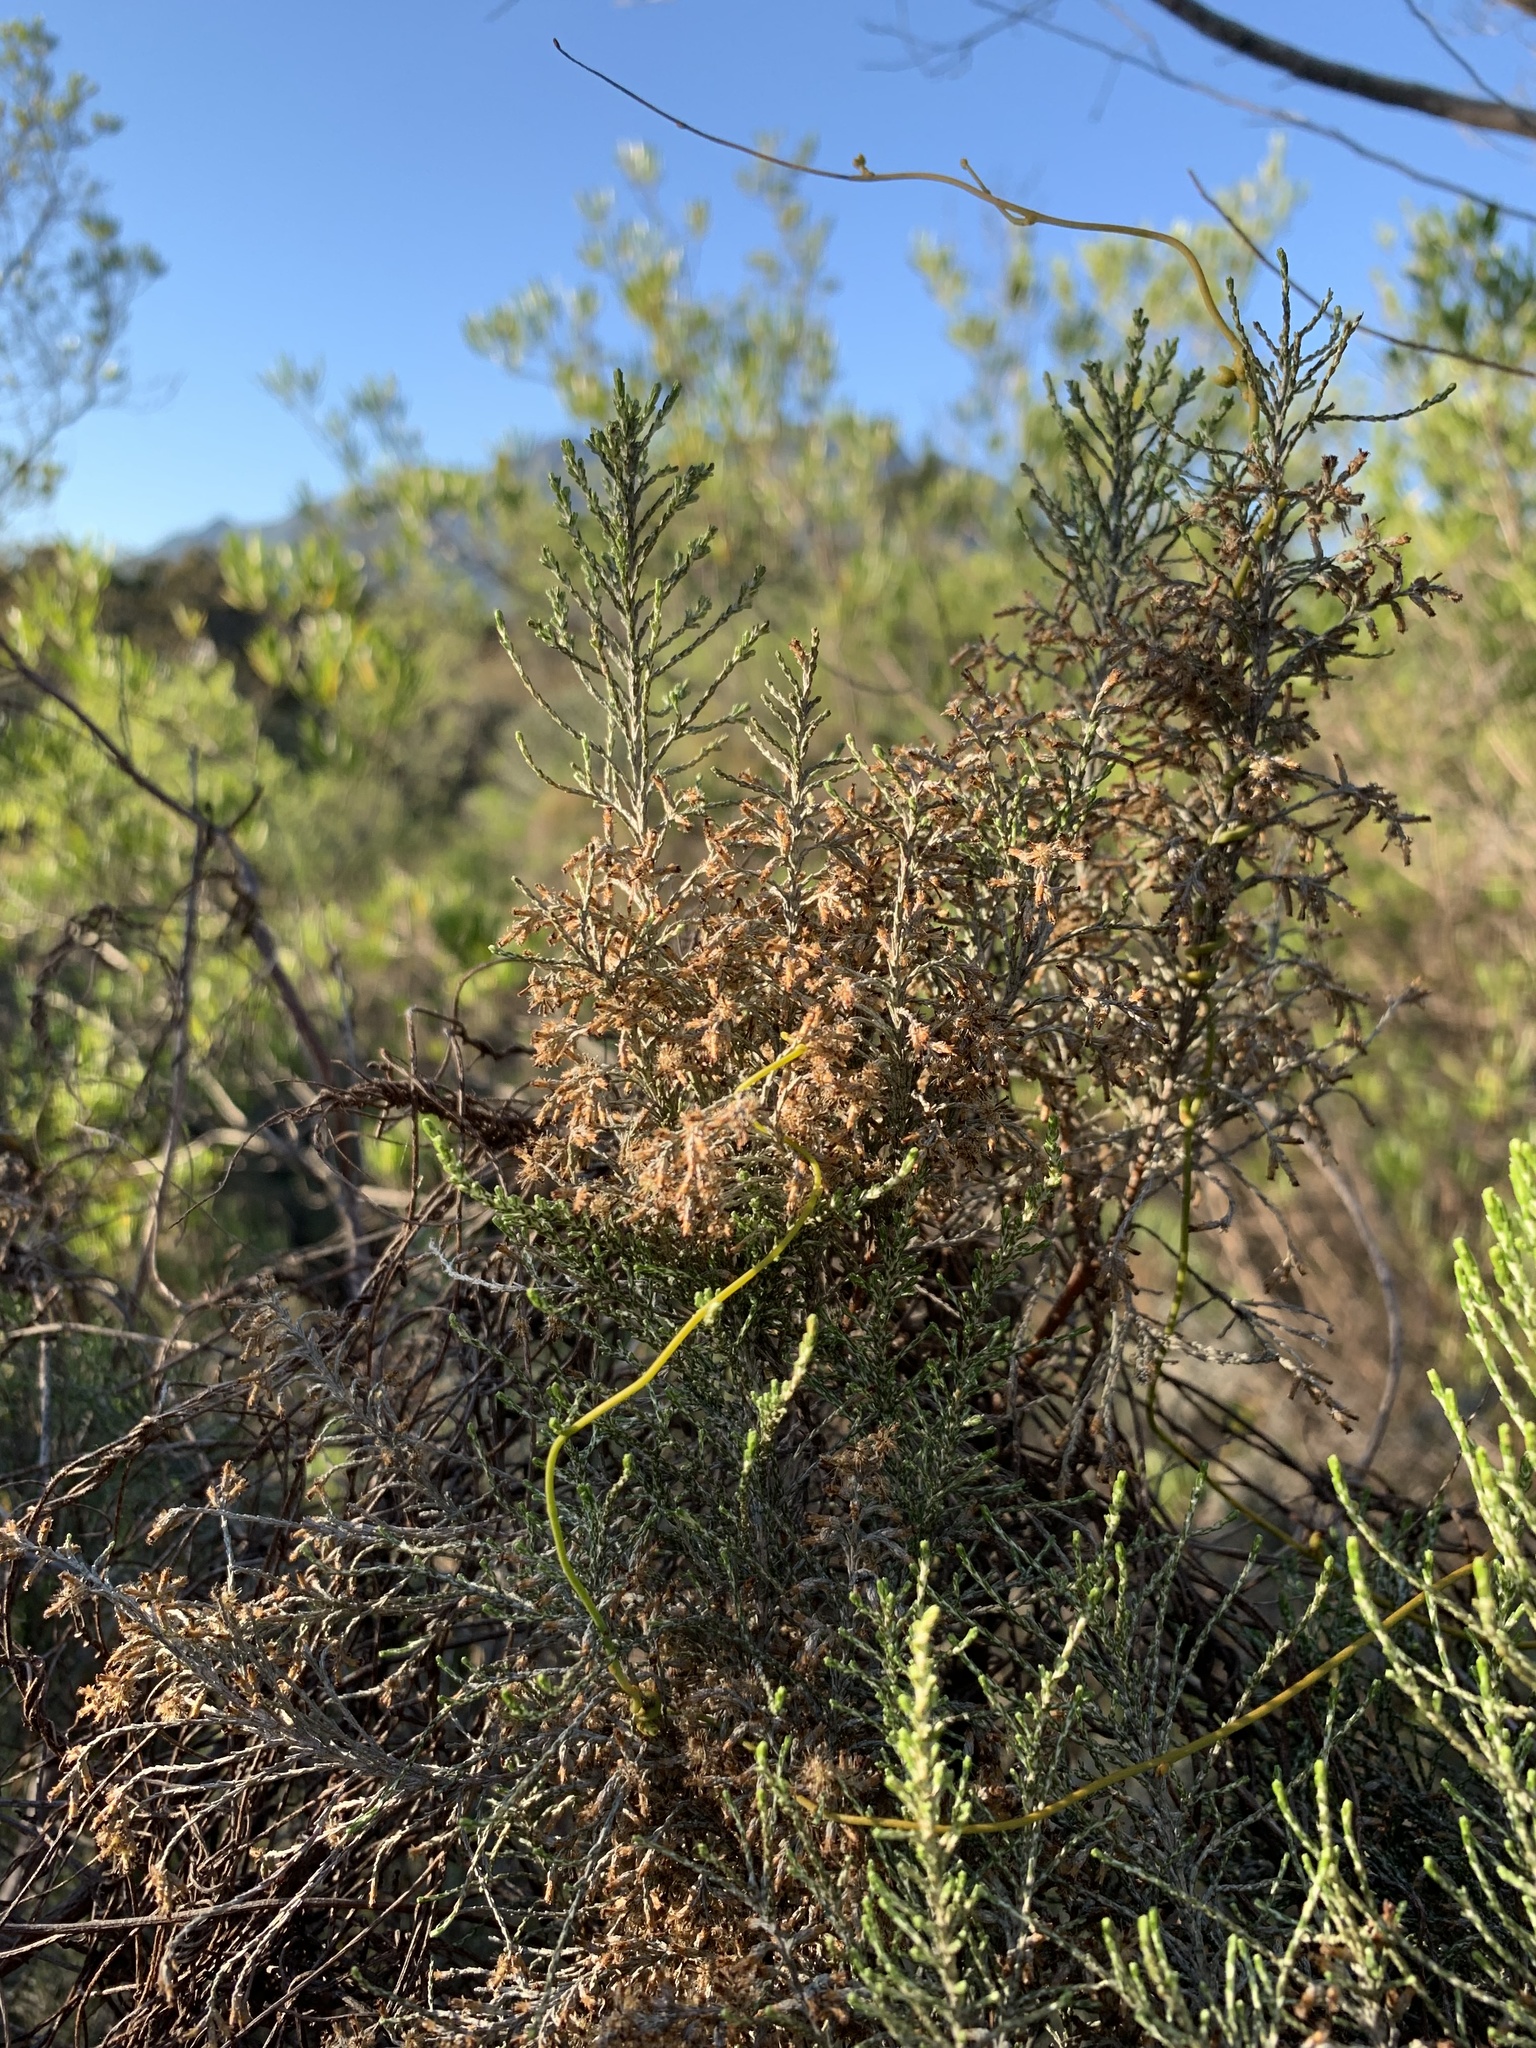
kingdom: Plantae
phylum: Tracheophyta
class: Magnoliopsida
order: Asterales
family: Asteraceae
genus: Dicerothamnus
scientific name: Dicerothamnus rhinocerotis
